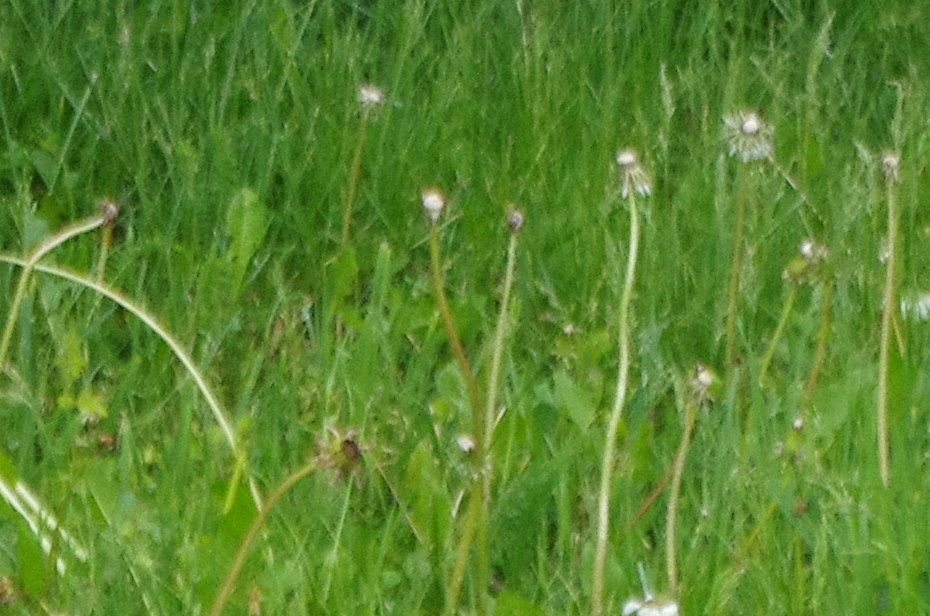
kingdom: Plantae
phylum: Tracheophyta
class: Magnoliopsida
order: Asterales
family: Asteraceae
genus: Taraxacum
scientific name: Taraxacum officinale
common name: Common dandelion
